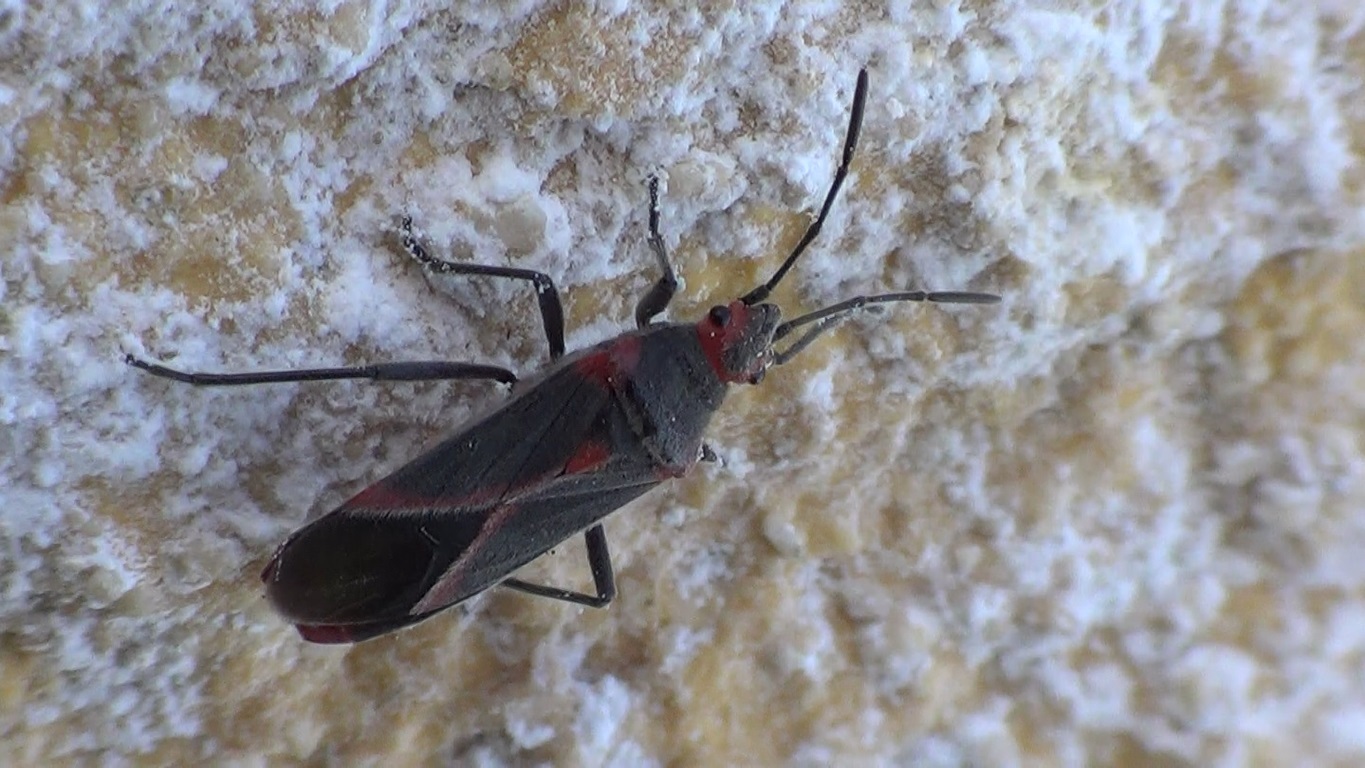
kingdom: Animalia
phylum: Arthropoda
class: Insecta
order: Hemiptera
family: Lygaeidae
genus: Caenocoris
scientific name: Caenocoris nerii
